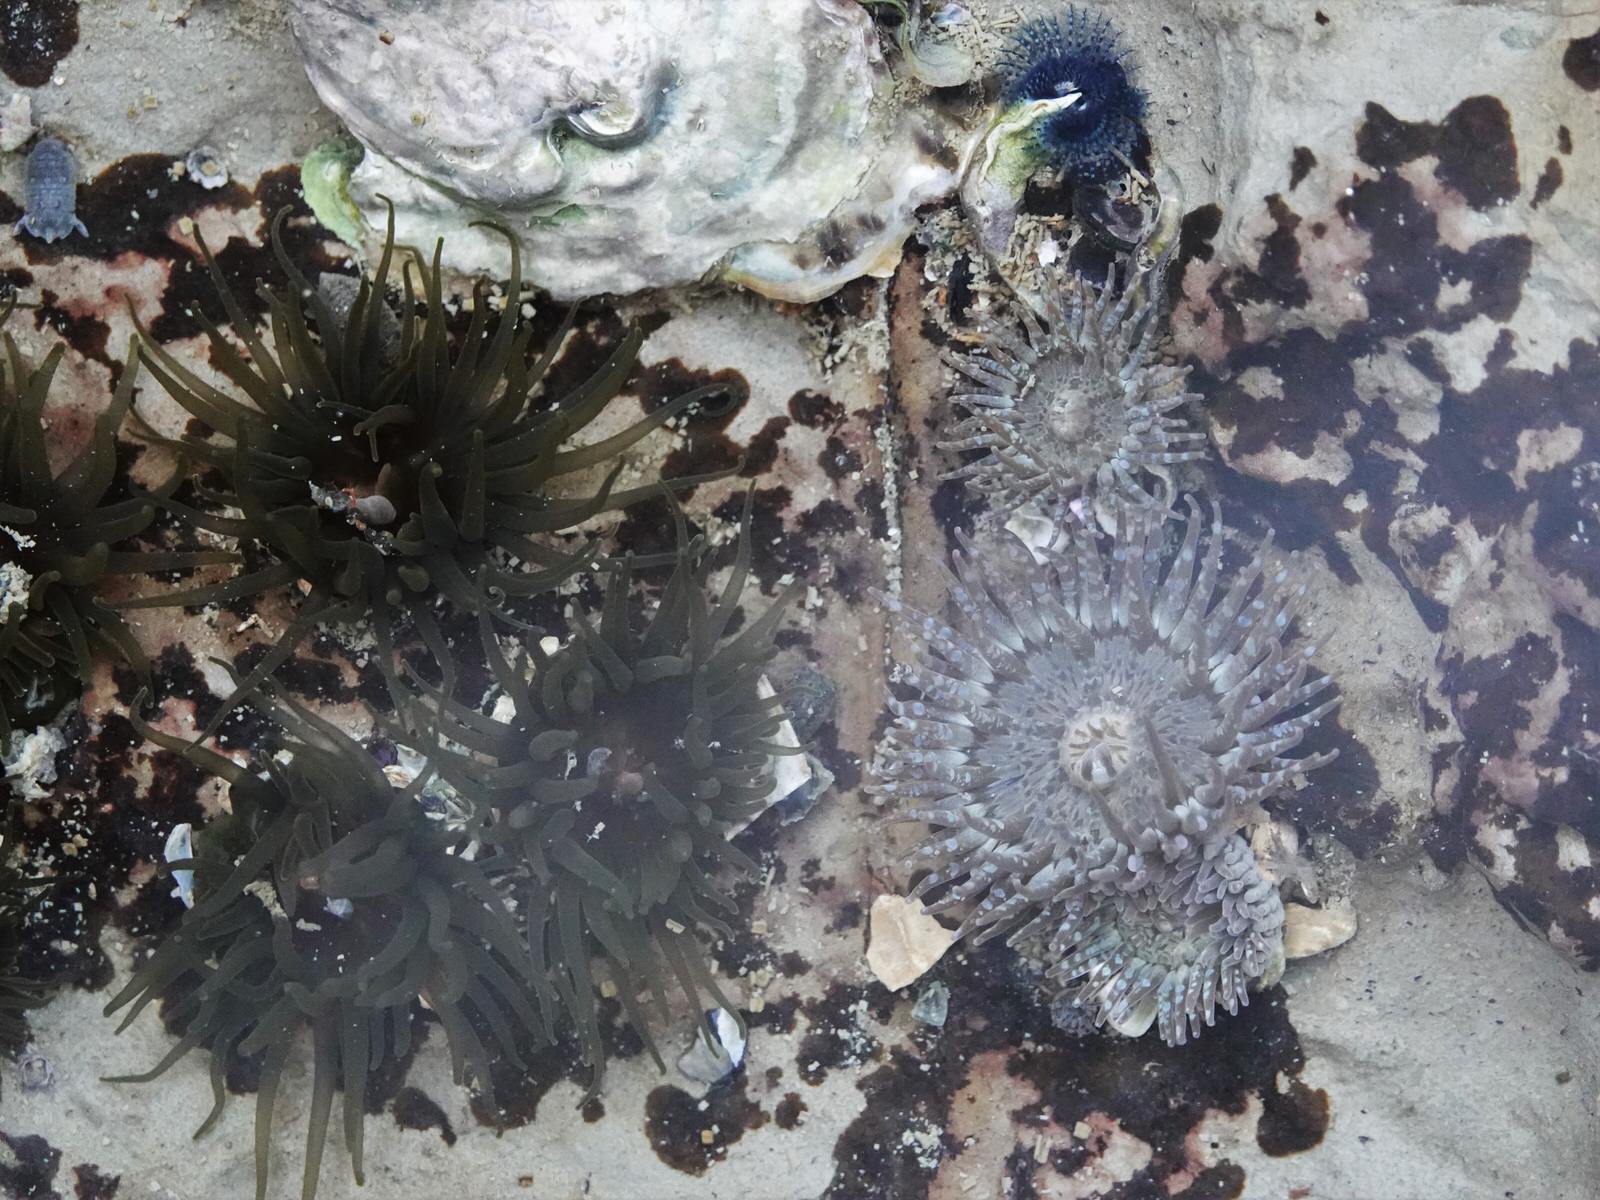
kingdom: Animalia
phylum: Cnidaria
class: Anthozoa
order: Actiniaria
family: Actiniidae
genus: Isactinia
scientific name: Isactinia olivacea
